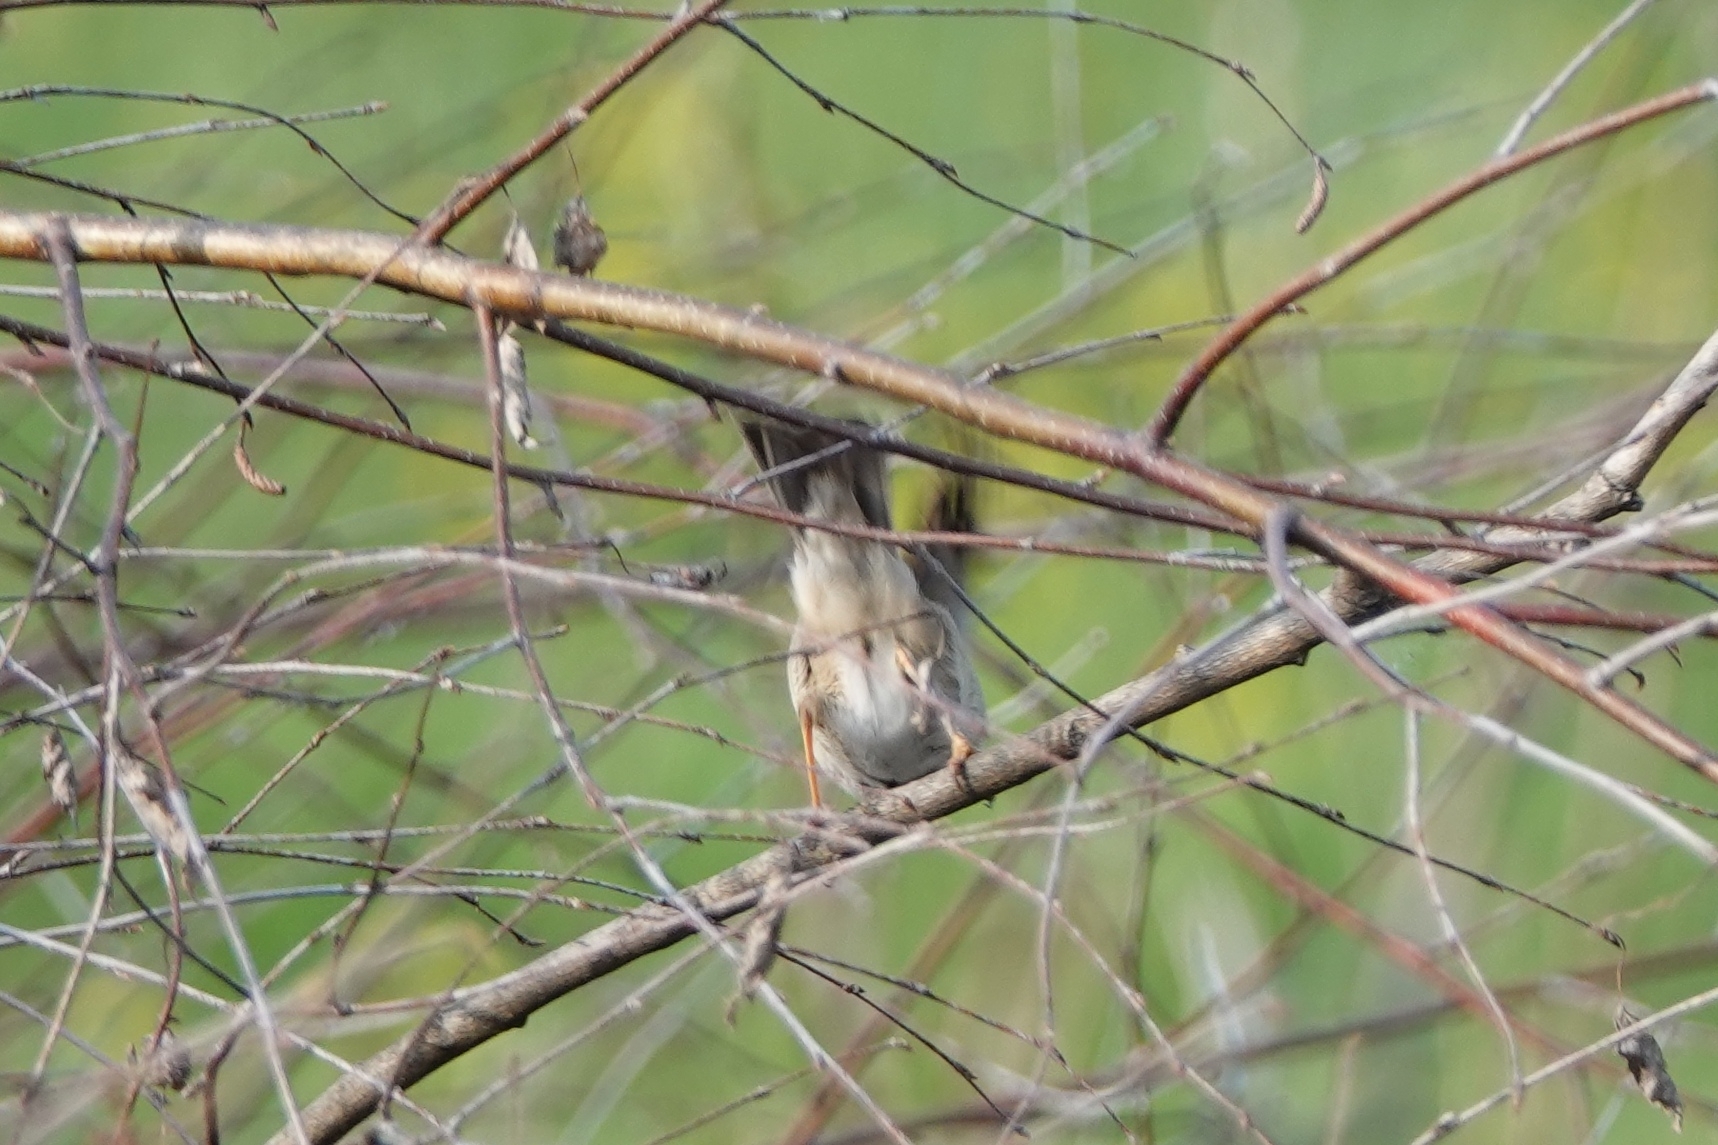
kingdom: Animalia
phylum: Chordata
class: Aves
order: Passeriformes
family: Sylviidae
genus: Sylvia
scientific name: Sylvia communis
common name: Common whitethroat
